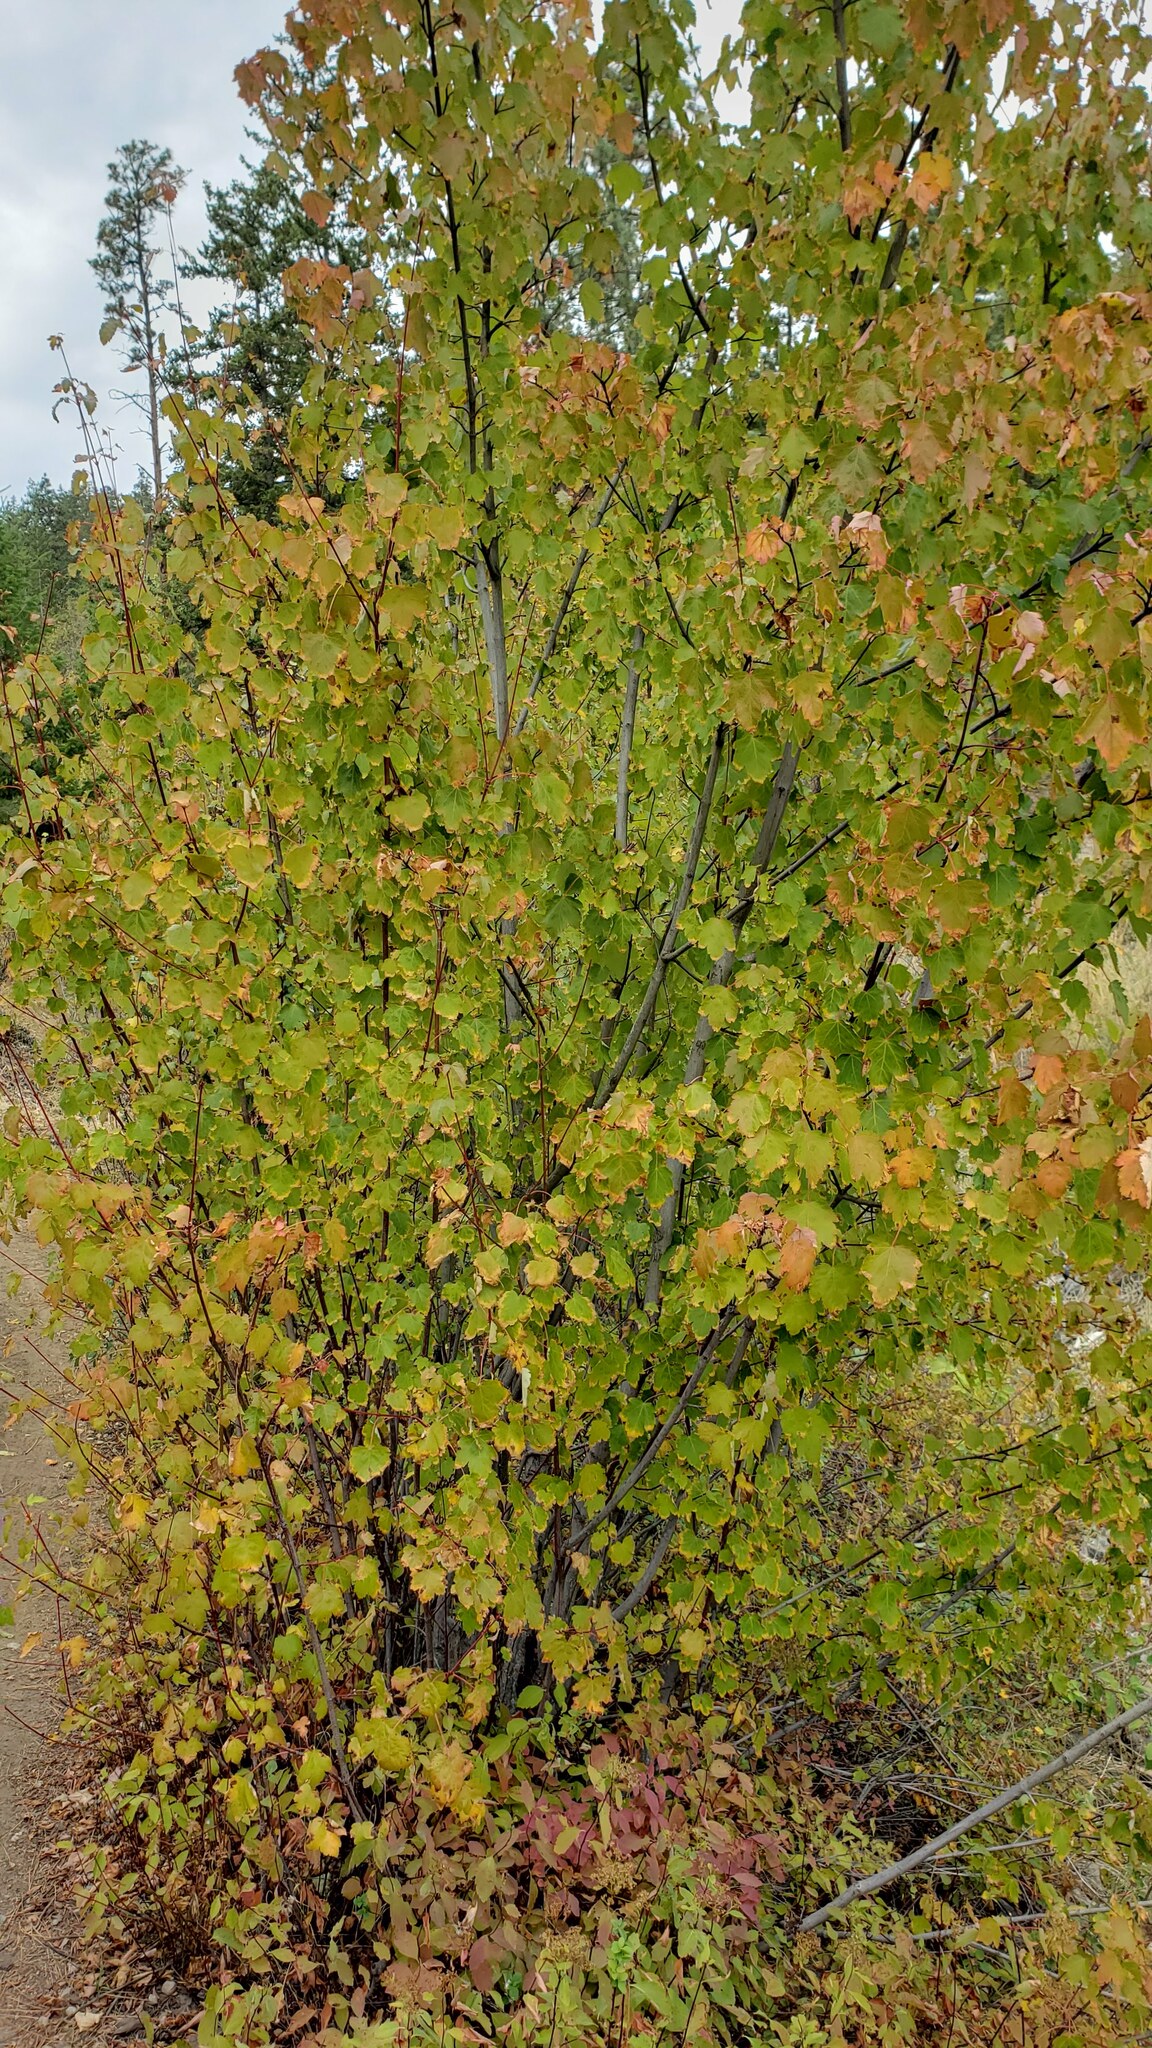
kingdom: Plantae
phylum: Tracheophyta
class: Magnoliopsida
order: Sapindales
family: Sapindaceae
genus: Acer
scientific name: Acer glabrum
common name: Rocky mountain maple
